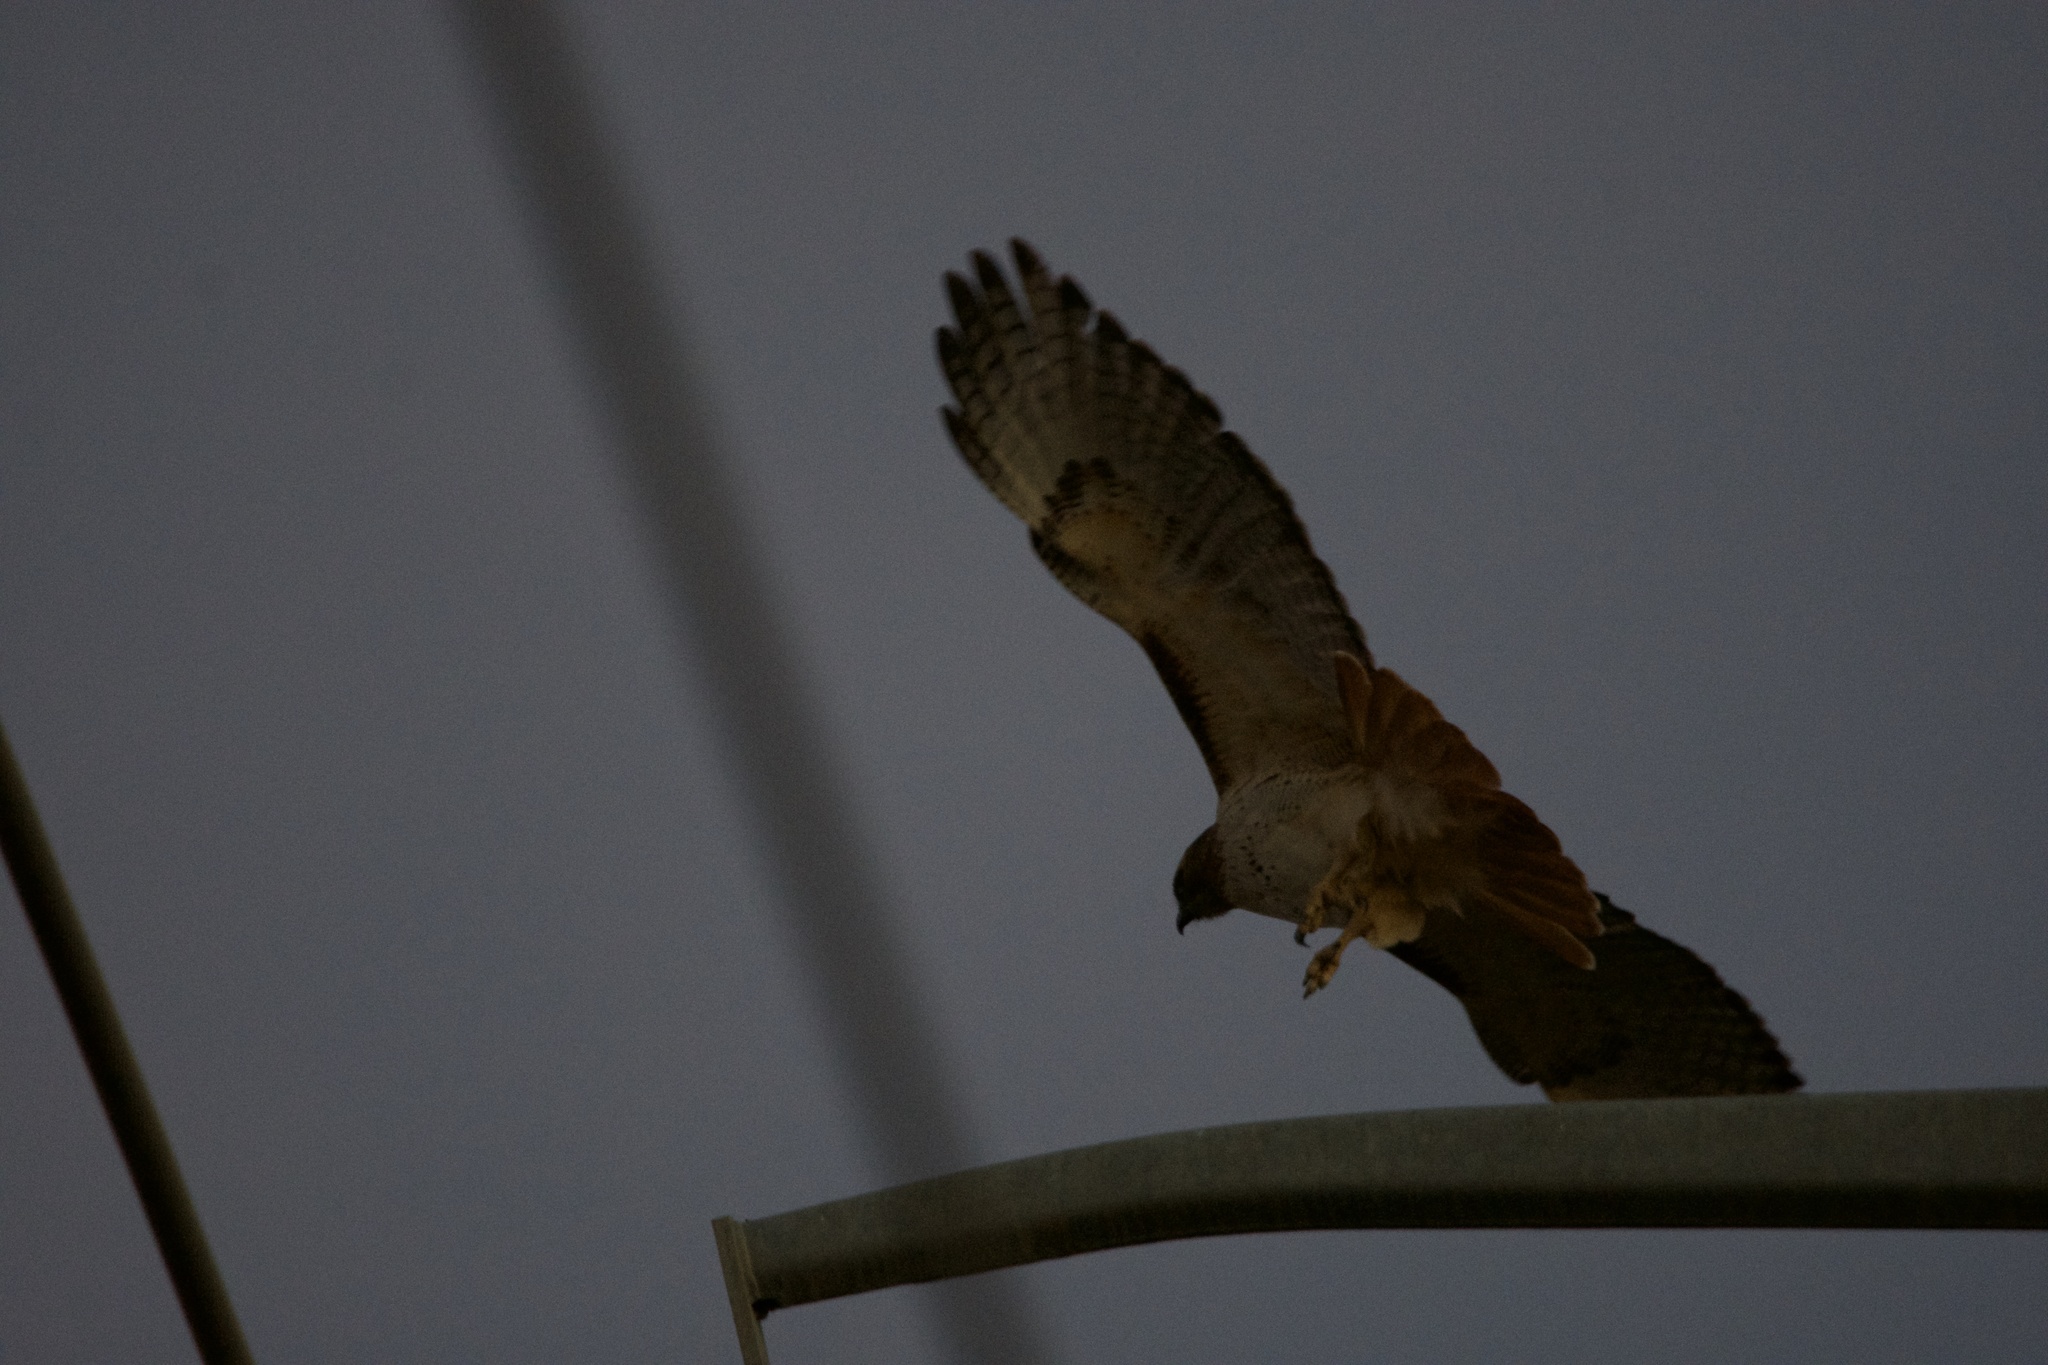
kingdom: Animalia
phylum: Chordata
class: Aves
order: Accipitriformes
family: Accipitridae
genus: Buteo
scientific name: Buteo jamaicensis
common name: Red-tailed hawk
